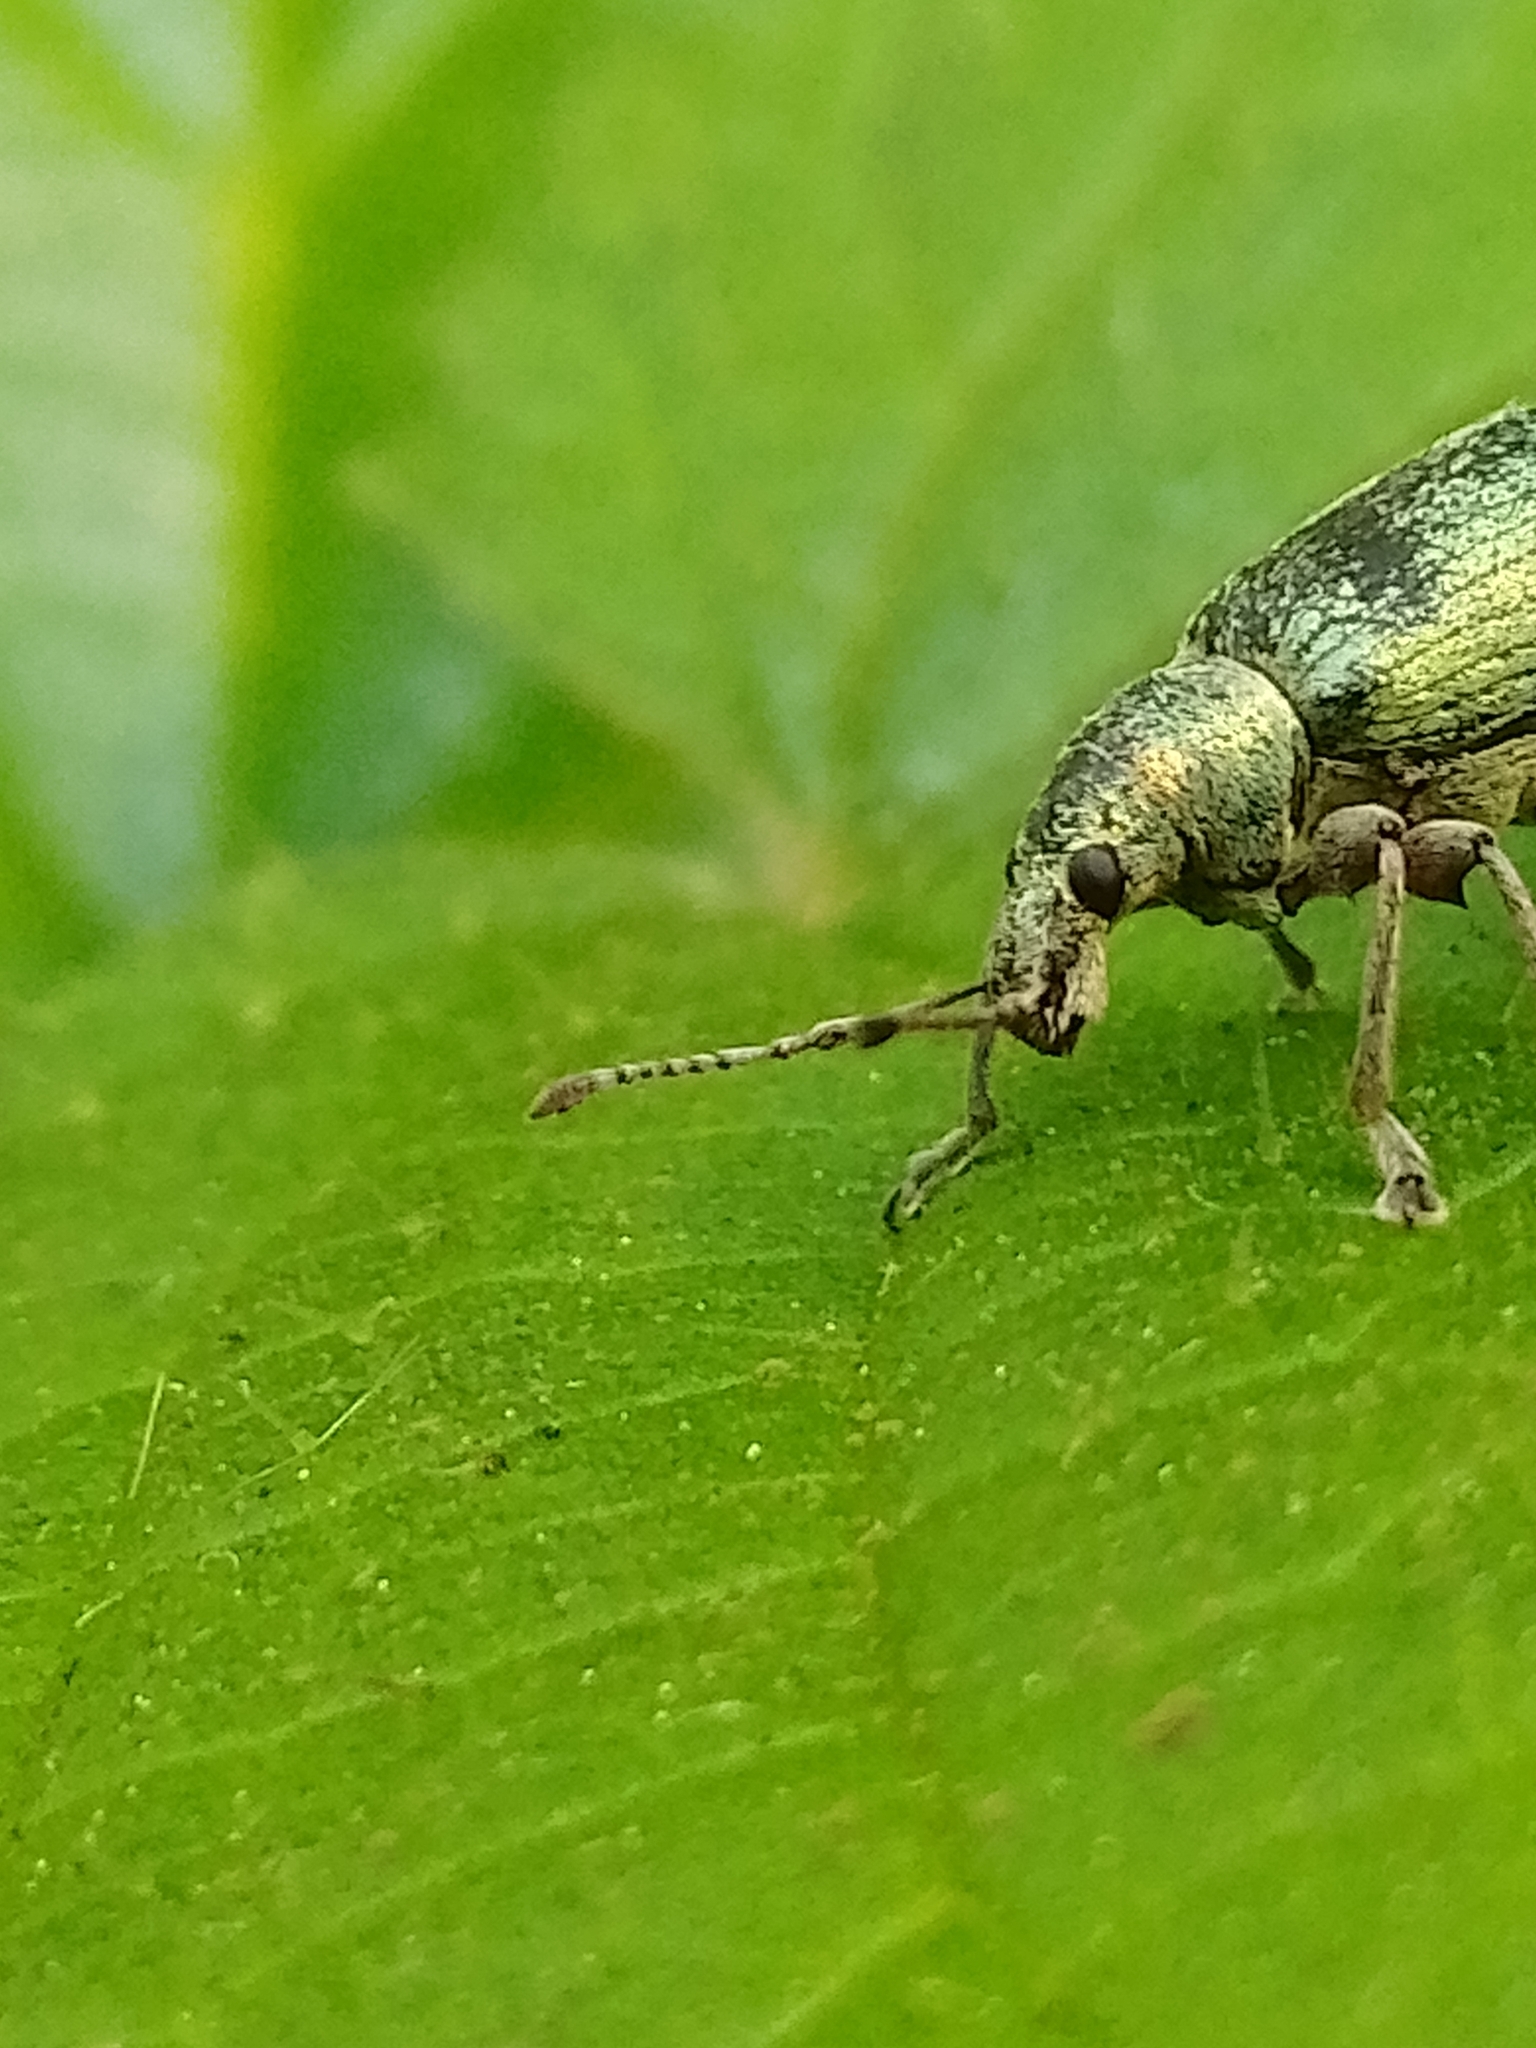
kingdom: Animalia
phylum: Arthropoda
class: Insecta
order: Coleoptera
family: Curculionidae
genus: Phyllobius
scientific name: Phyllobius pomaceus
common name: Green nettle weevil
